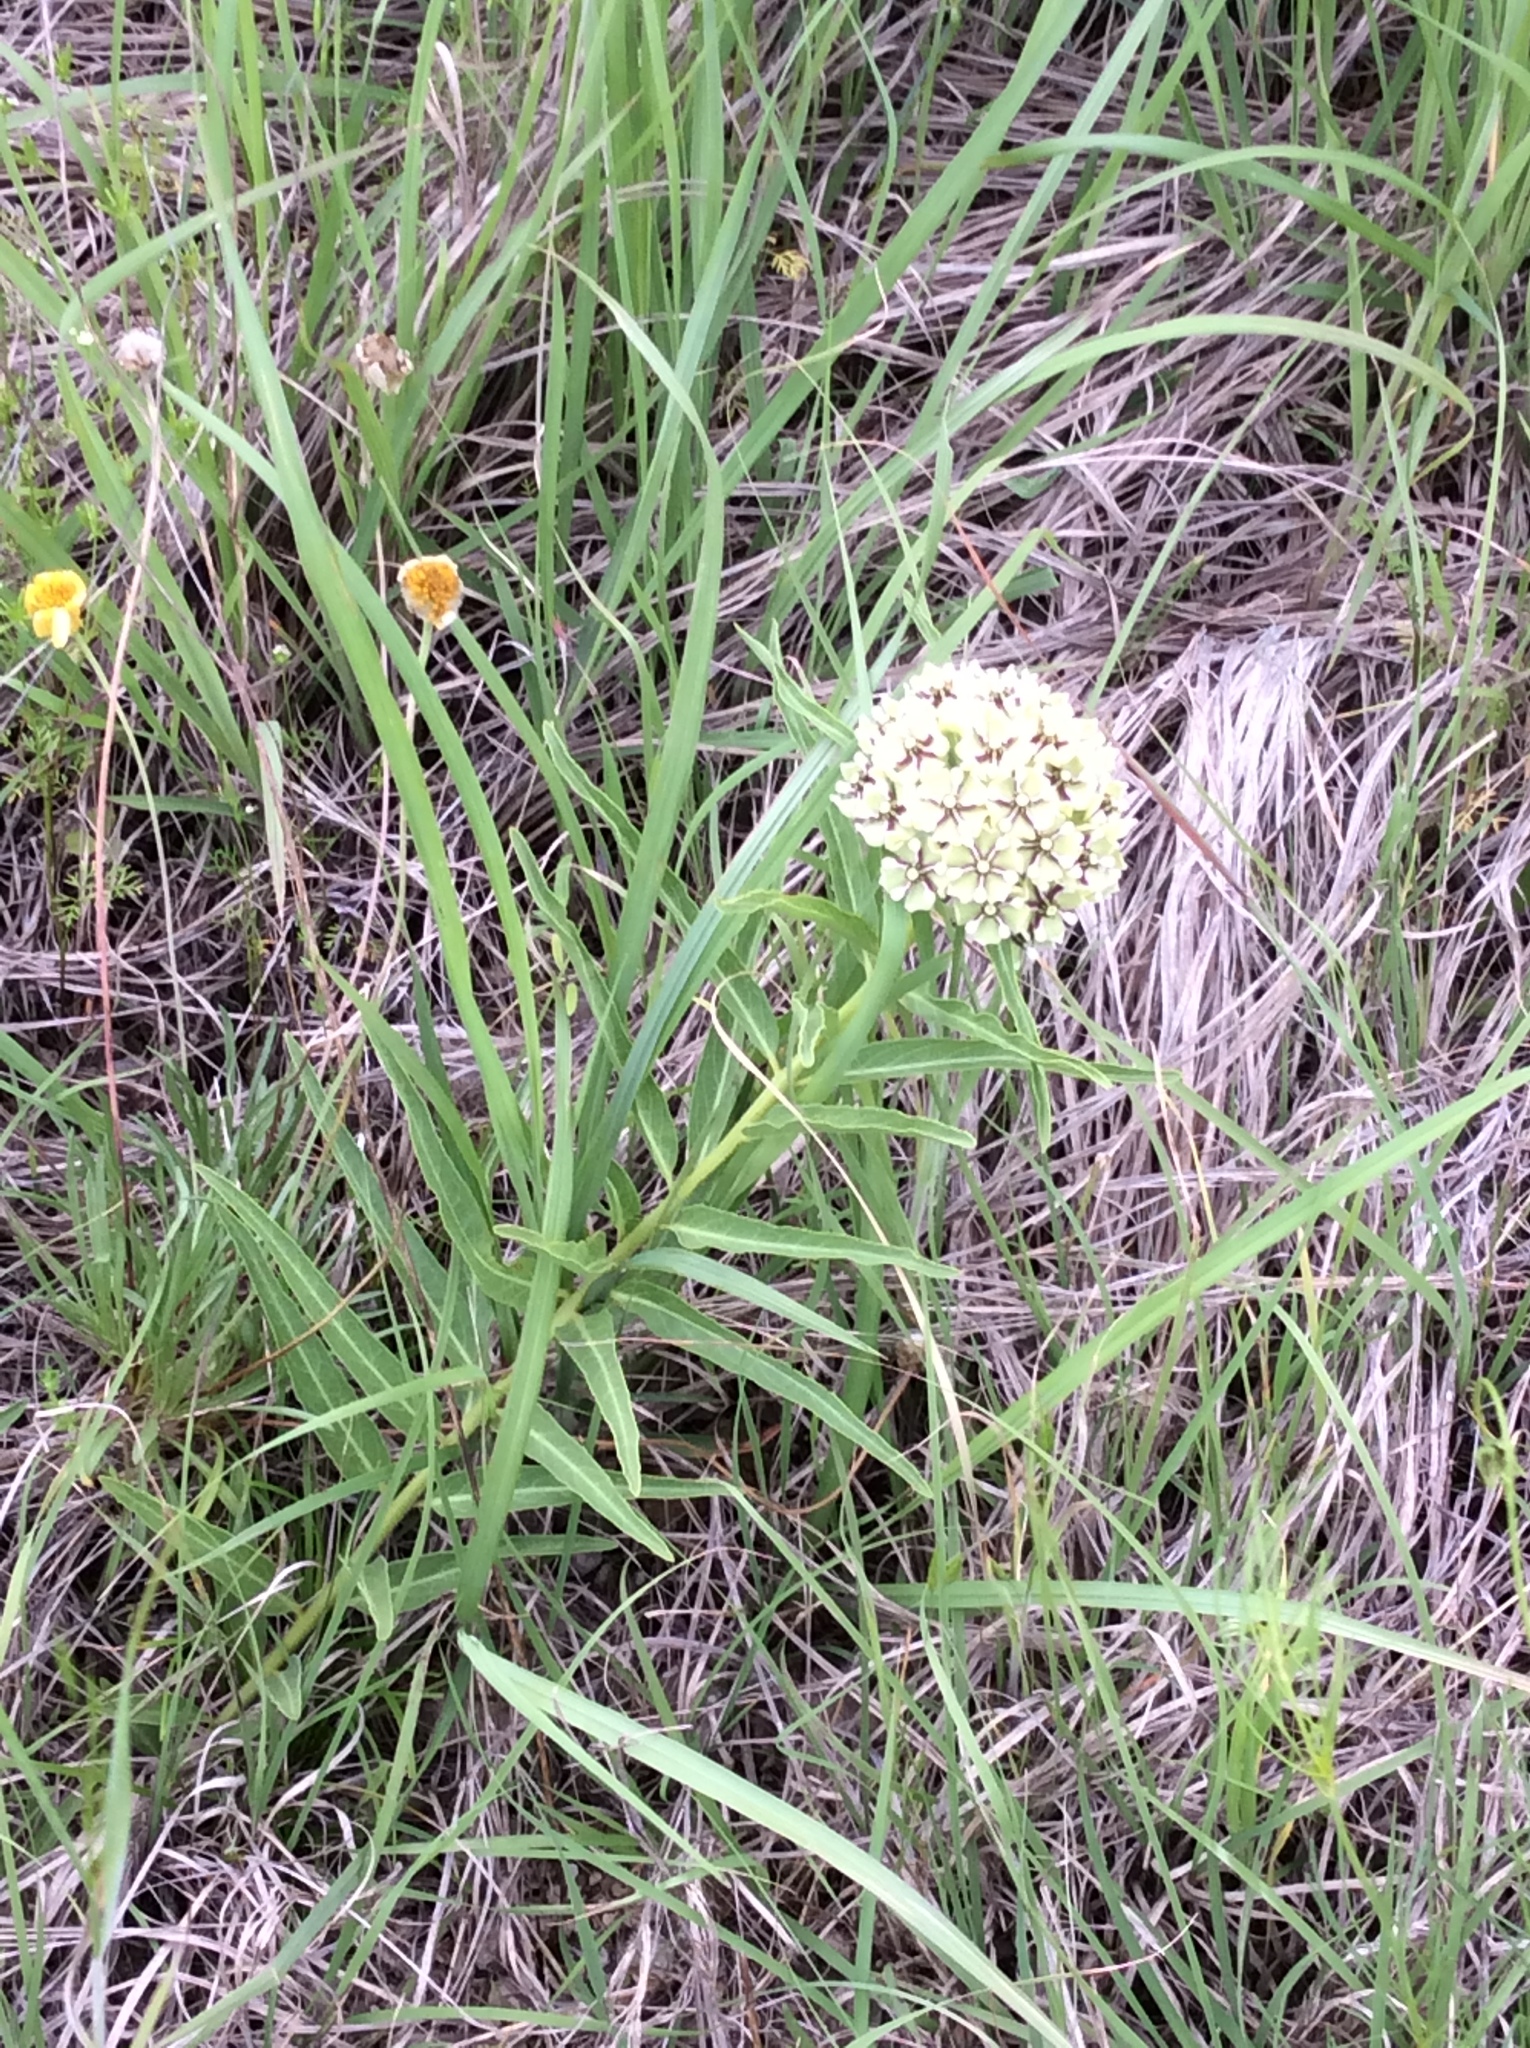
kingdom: Plantae
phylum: Tracheophyta
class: Magnoliopsida
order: Gentianales
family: Apocynaceae
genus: Asclepias
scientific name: Asclepias asperula
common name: Antelope horns
